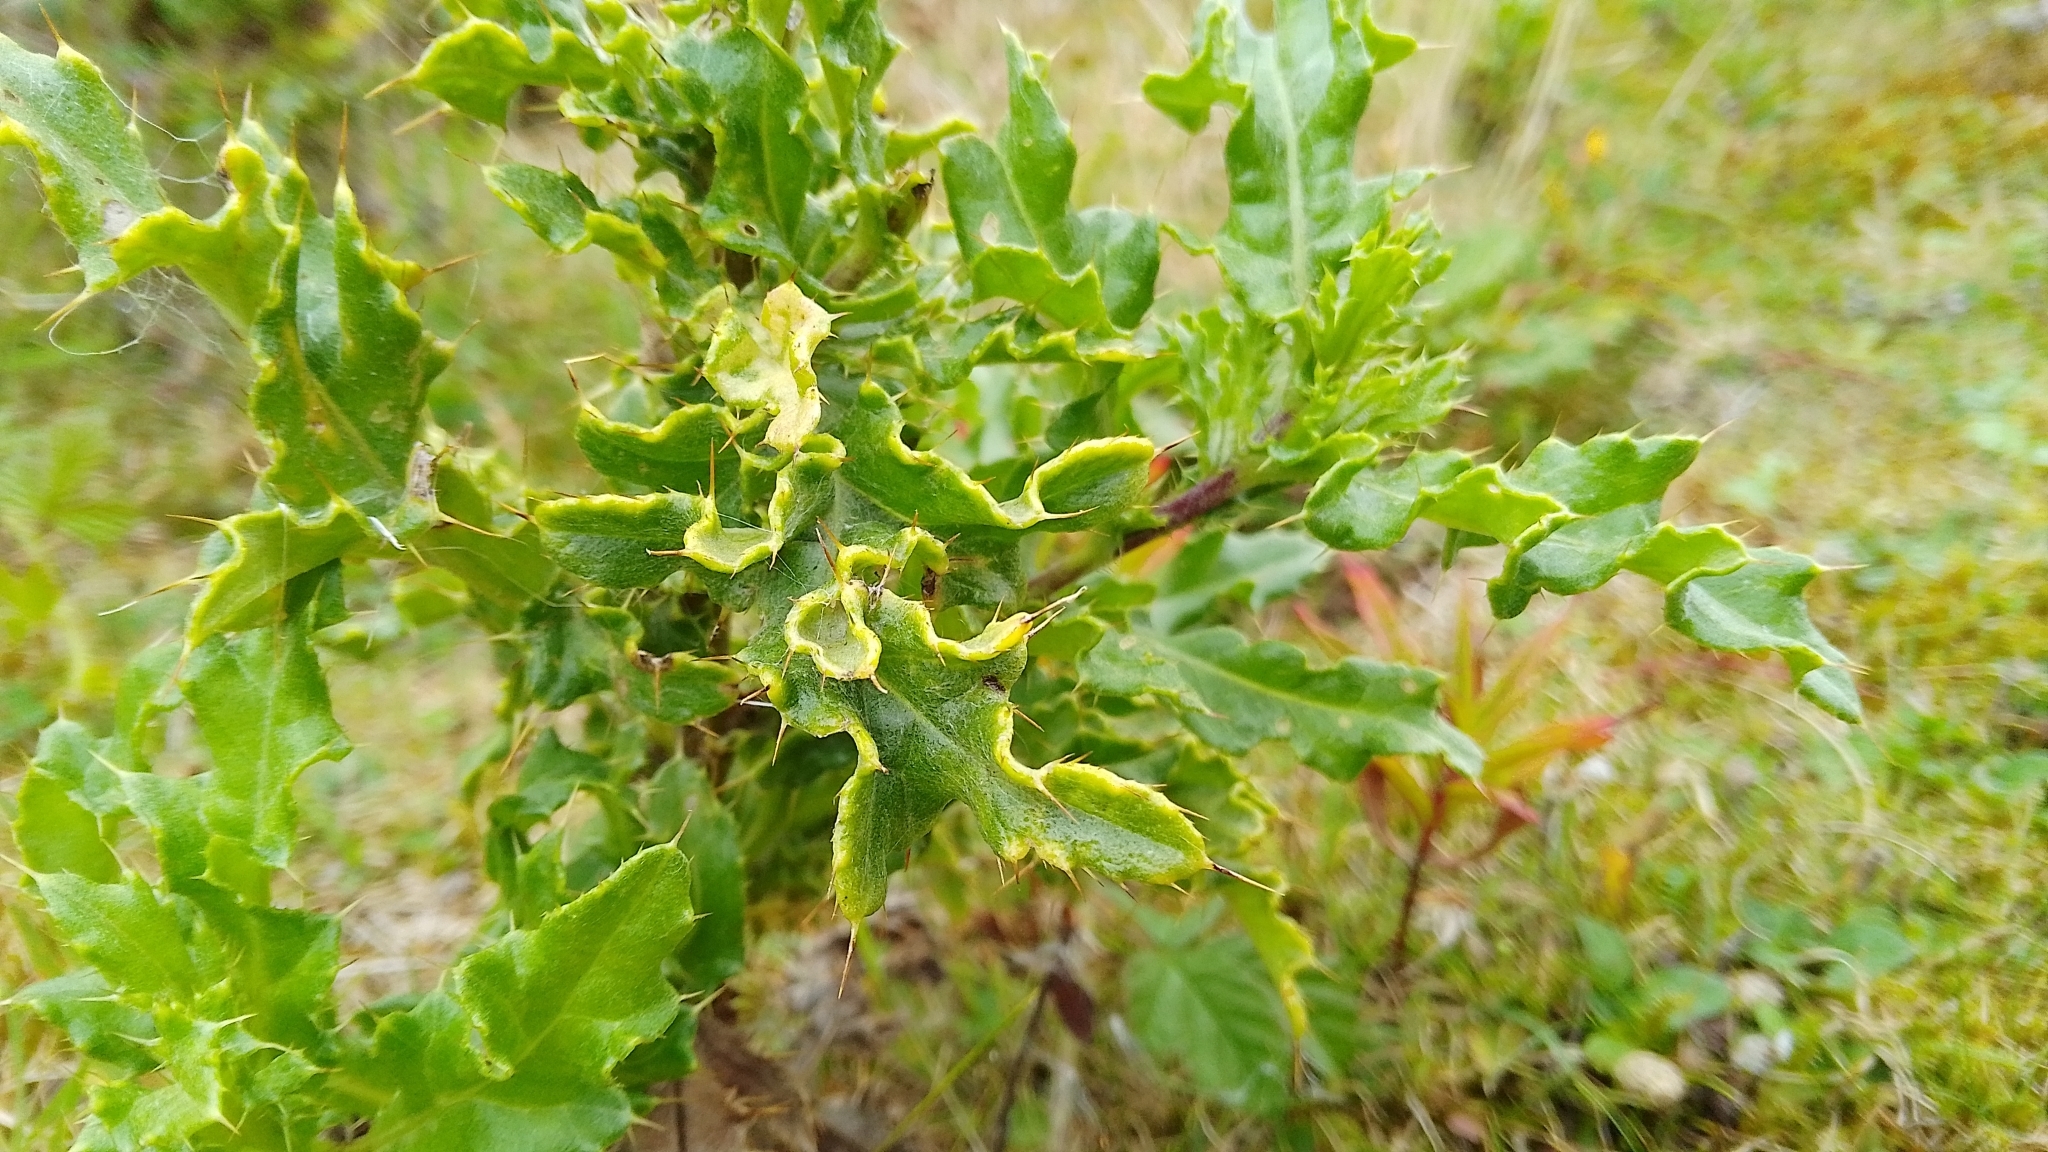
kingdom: Plantae
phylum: Tracheophyta
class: Magnoliopsida
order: Asterales
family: Asteraceae
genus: Cirsium
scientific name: Cirsium arvense
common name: Creeping thistle
